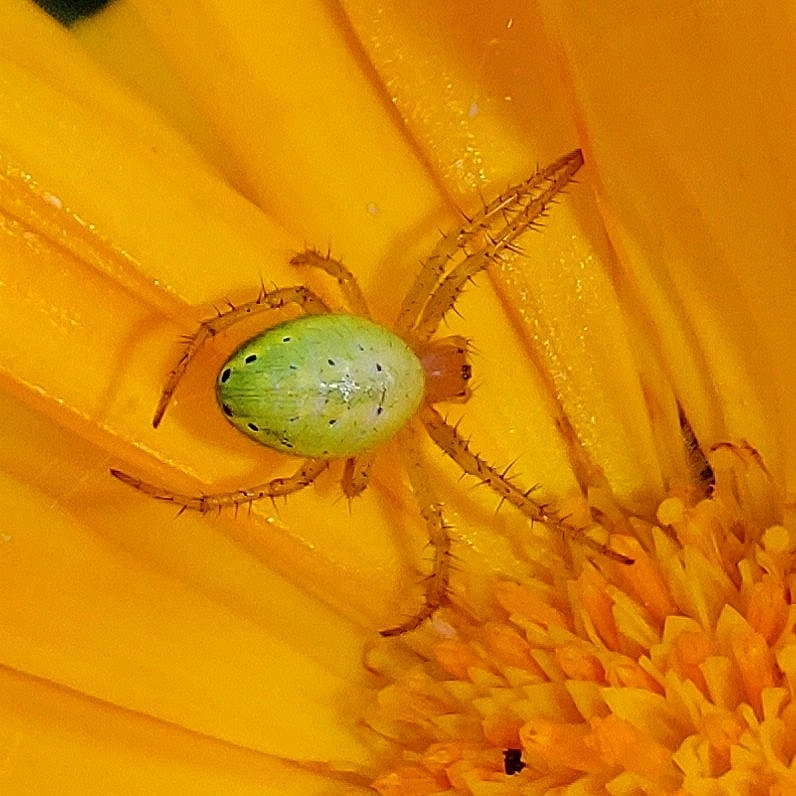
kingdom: Animalia
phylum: Arthropoda
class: Arachnida
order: Araneae
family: Araneidae
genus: Araniella
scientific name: Araniella
